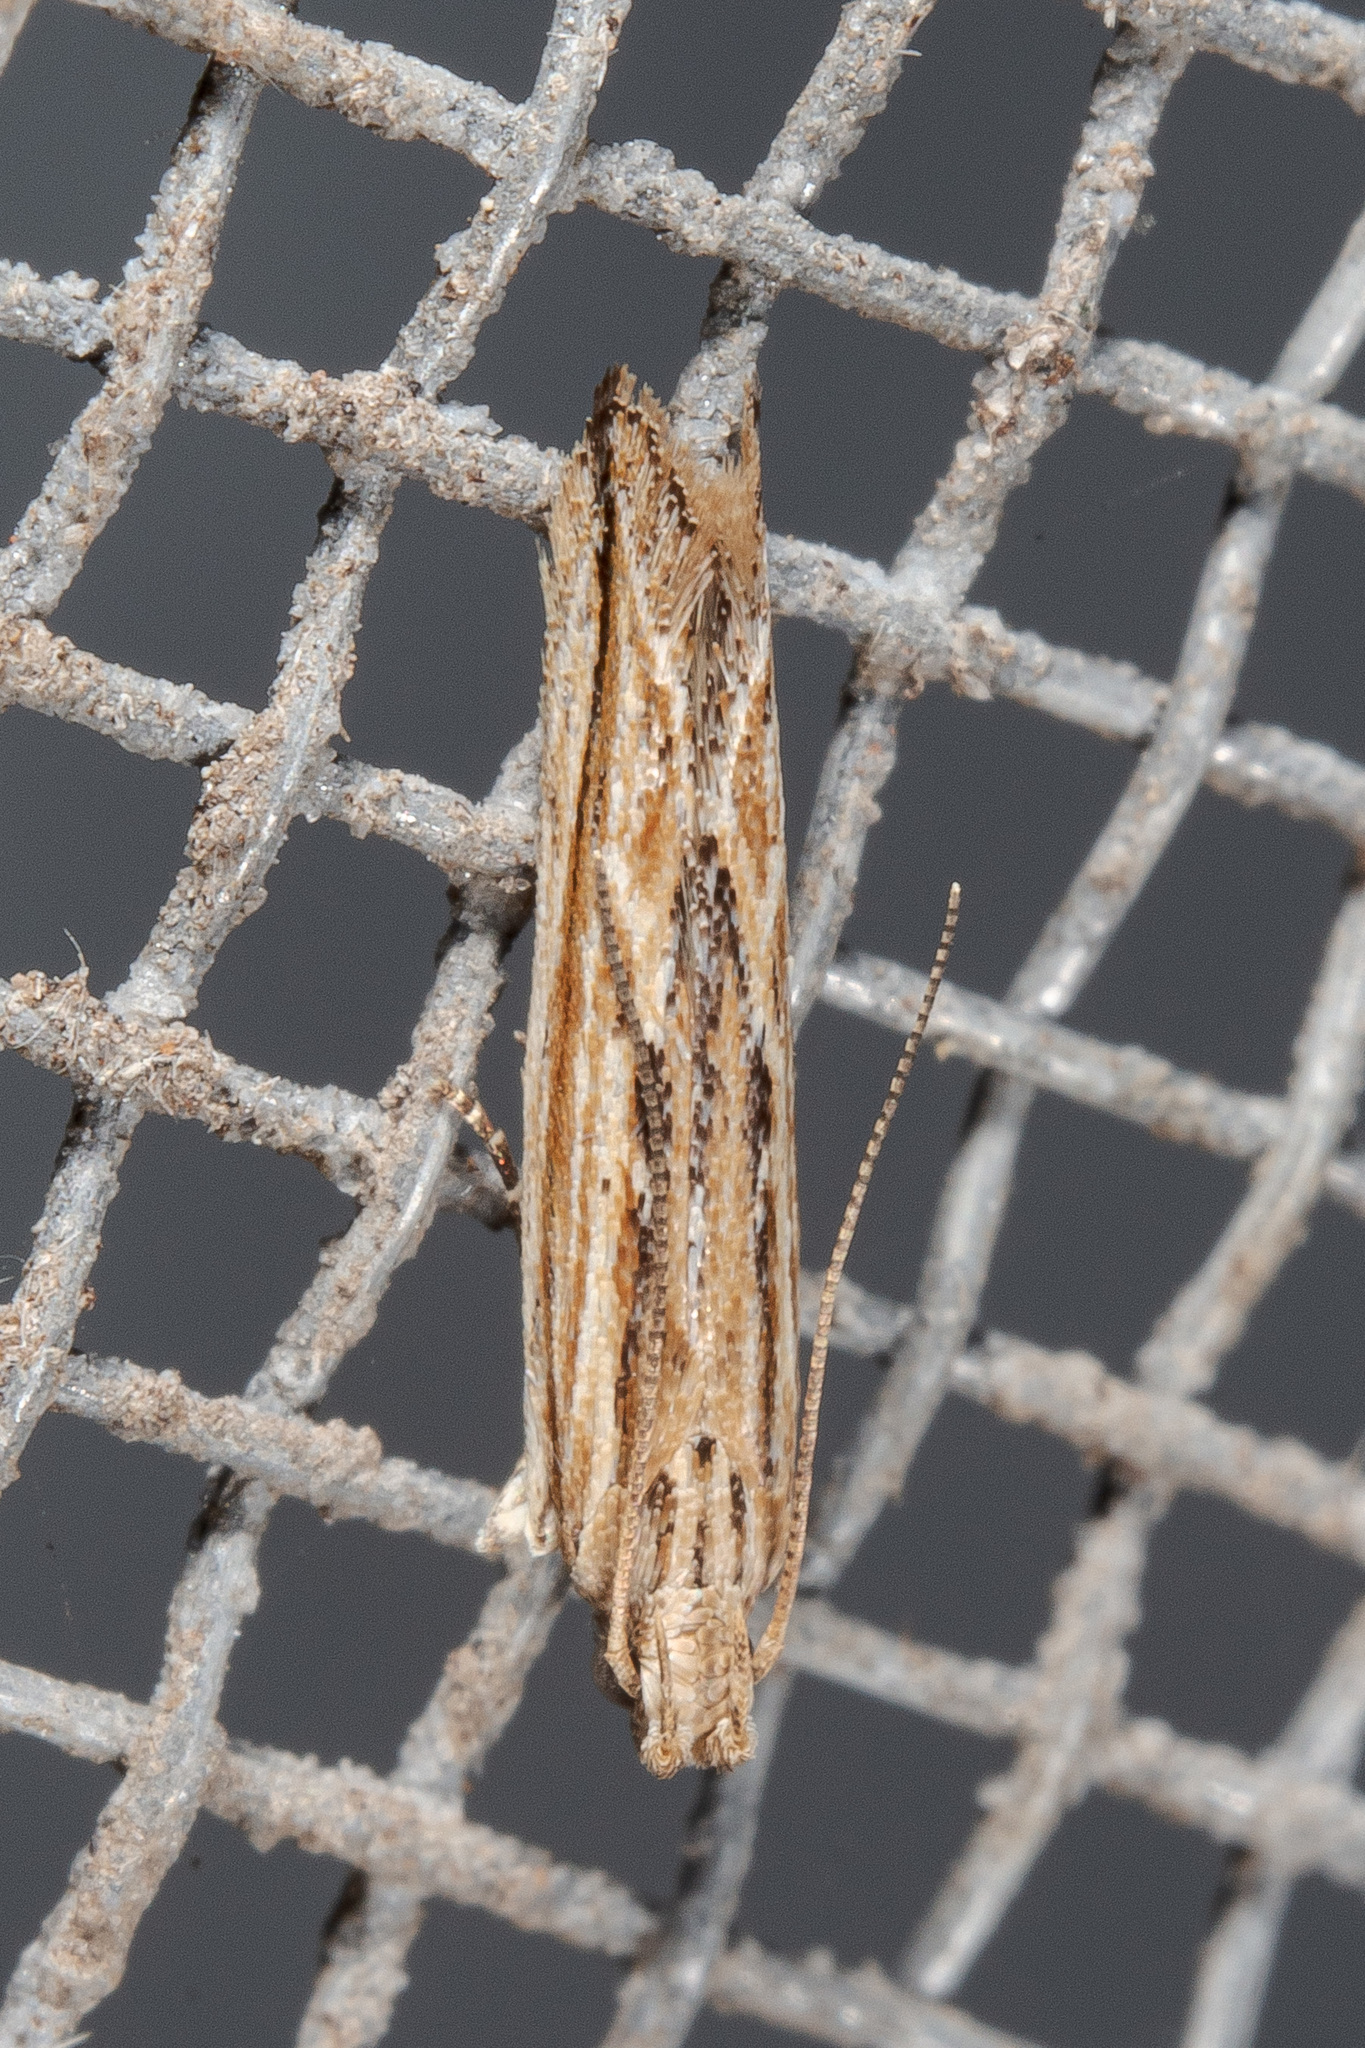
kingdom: Animalia
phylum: Arthropoda
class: Insecta
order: Lepidoptera
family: Gelechiidae
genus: Symmetrischema
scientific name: Symmetrischema striatella
